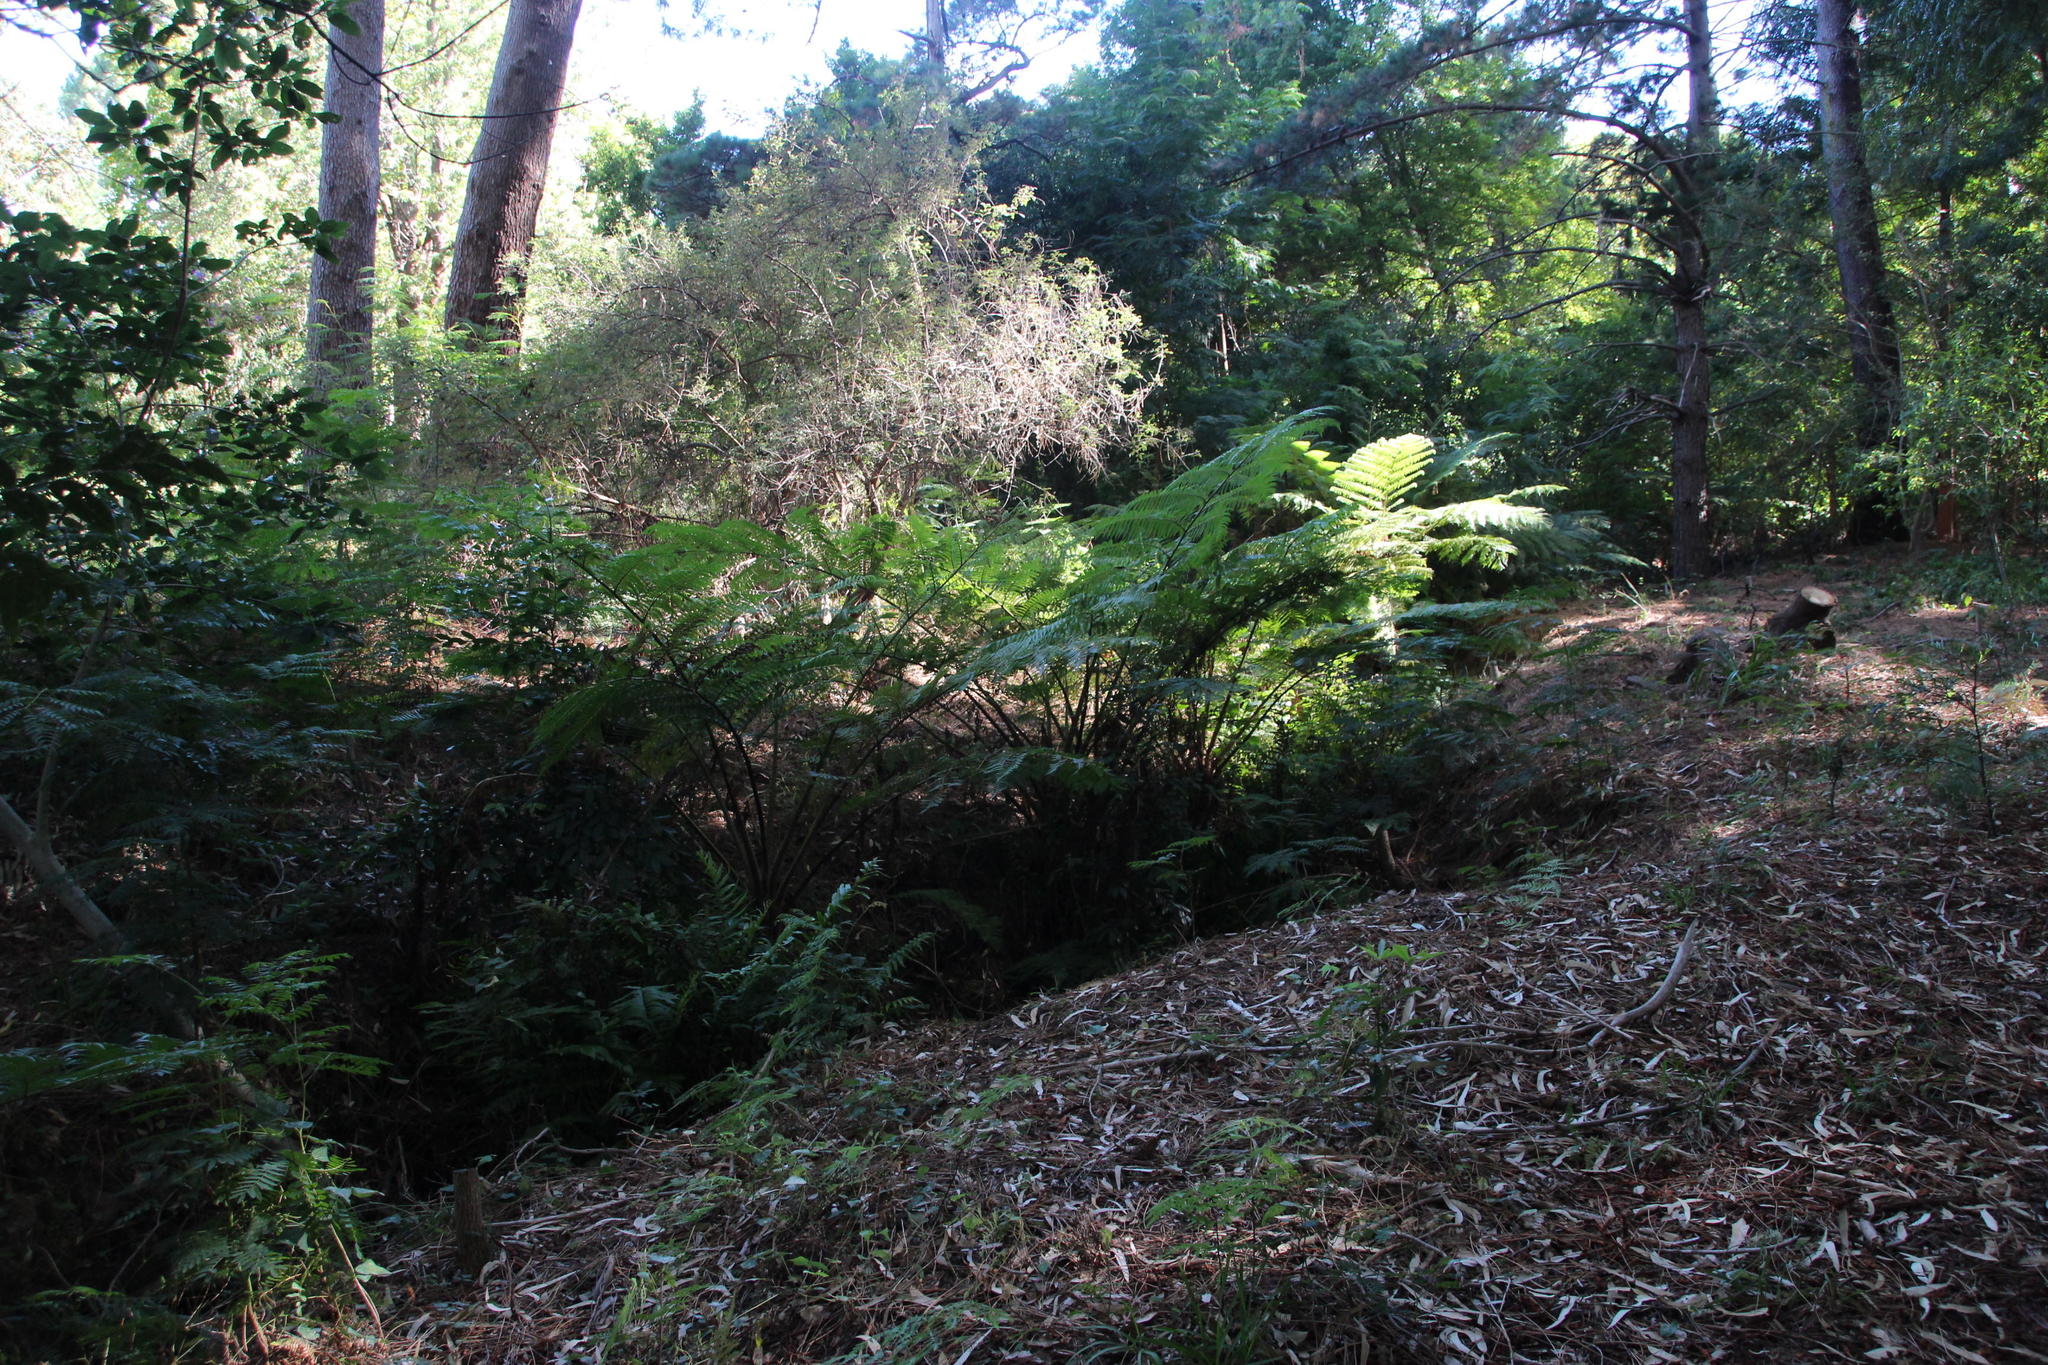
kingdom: Plantae
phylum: Tracheophyta
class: Polypodiopsida
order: Cyatheales
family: Cyatheaceae
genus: Sphaeropteris
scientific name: Sphaeropteris cooperi
